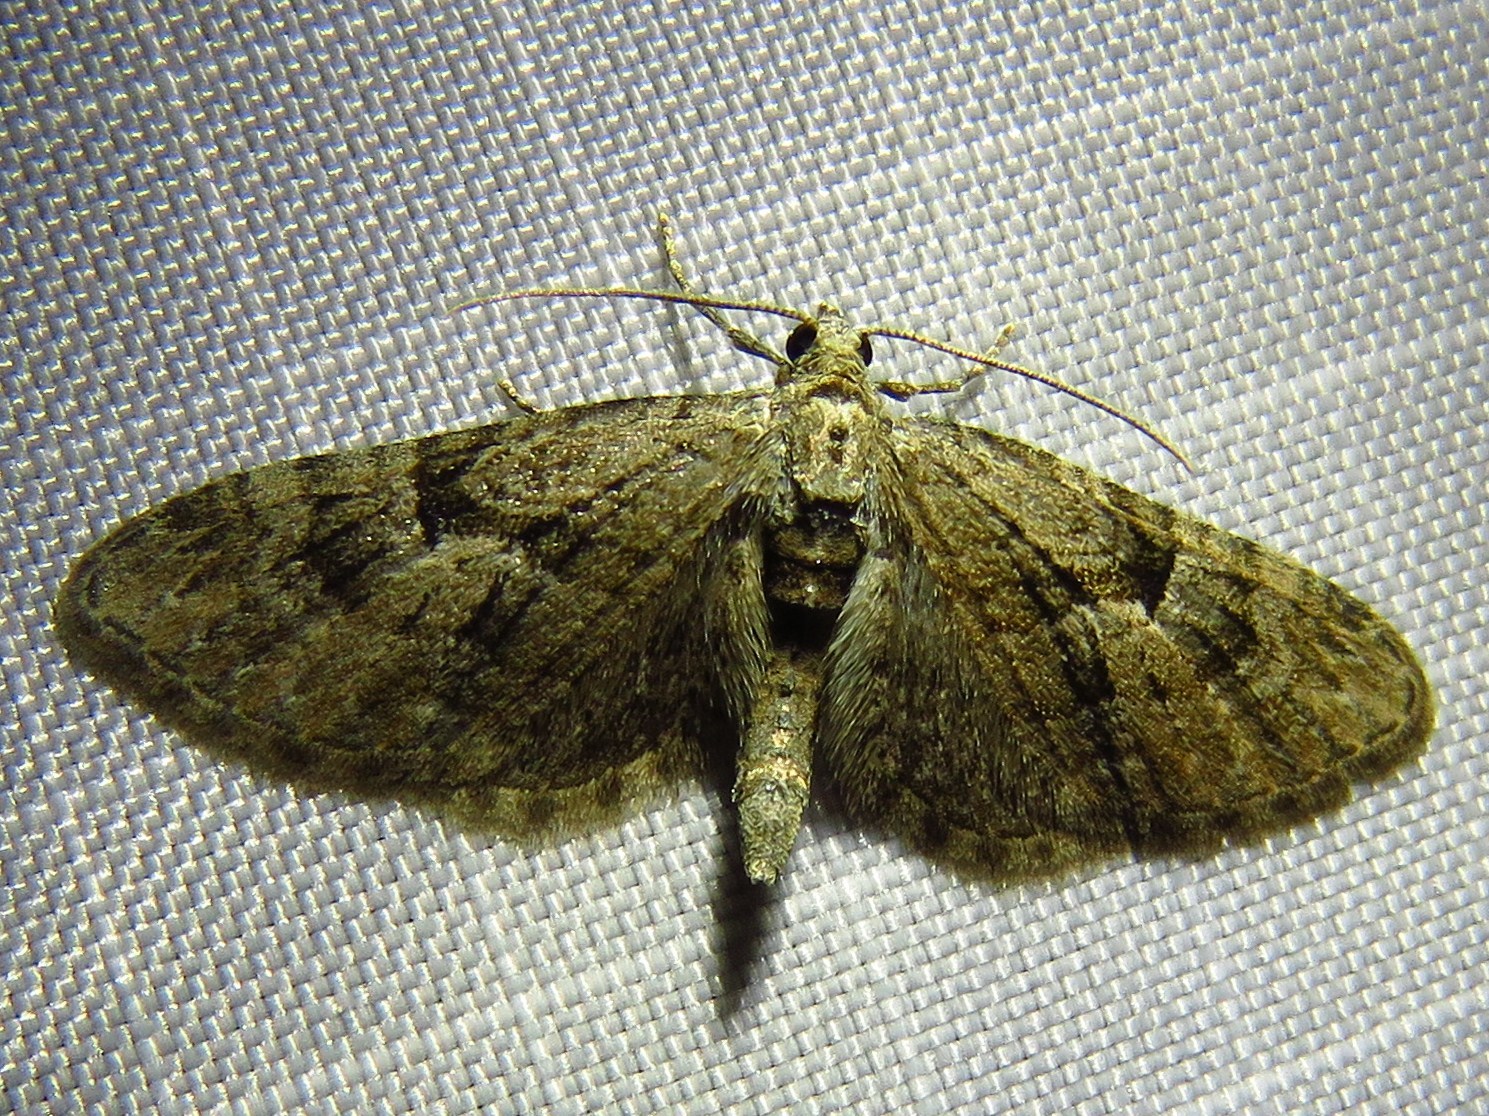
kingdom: Animalia
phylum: Arthropoda
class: Insecta
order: Lepidoptera
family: Geometridae
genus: Eupithecia
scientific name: Eupithecia pusillata
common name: Juniper pug
